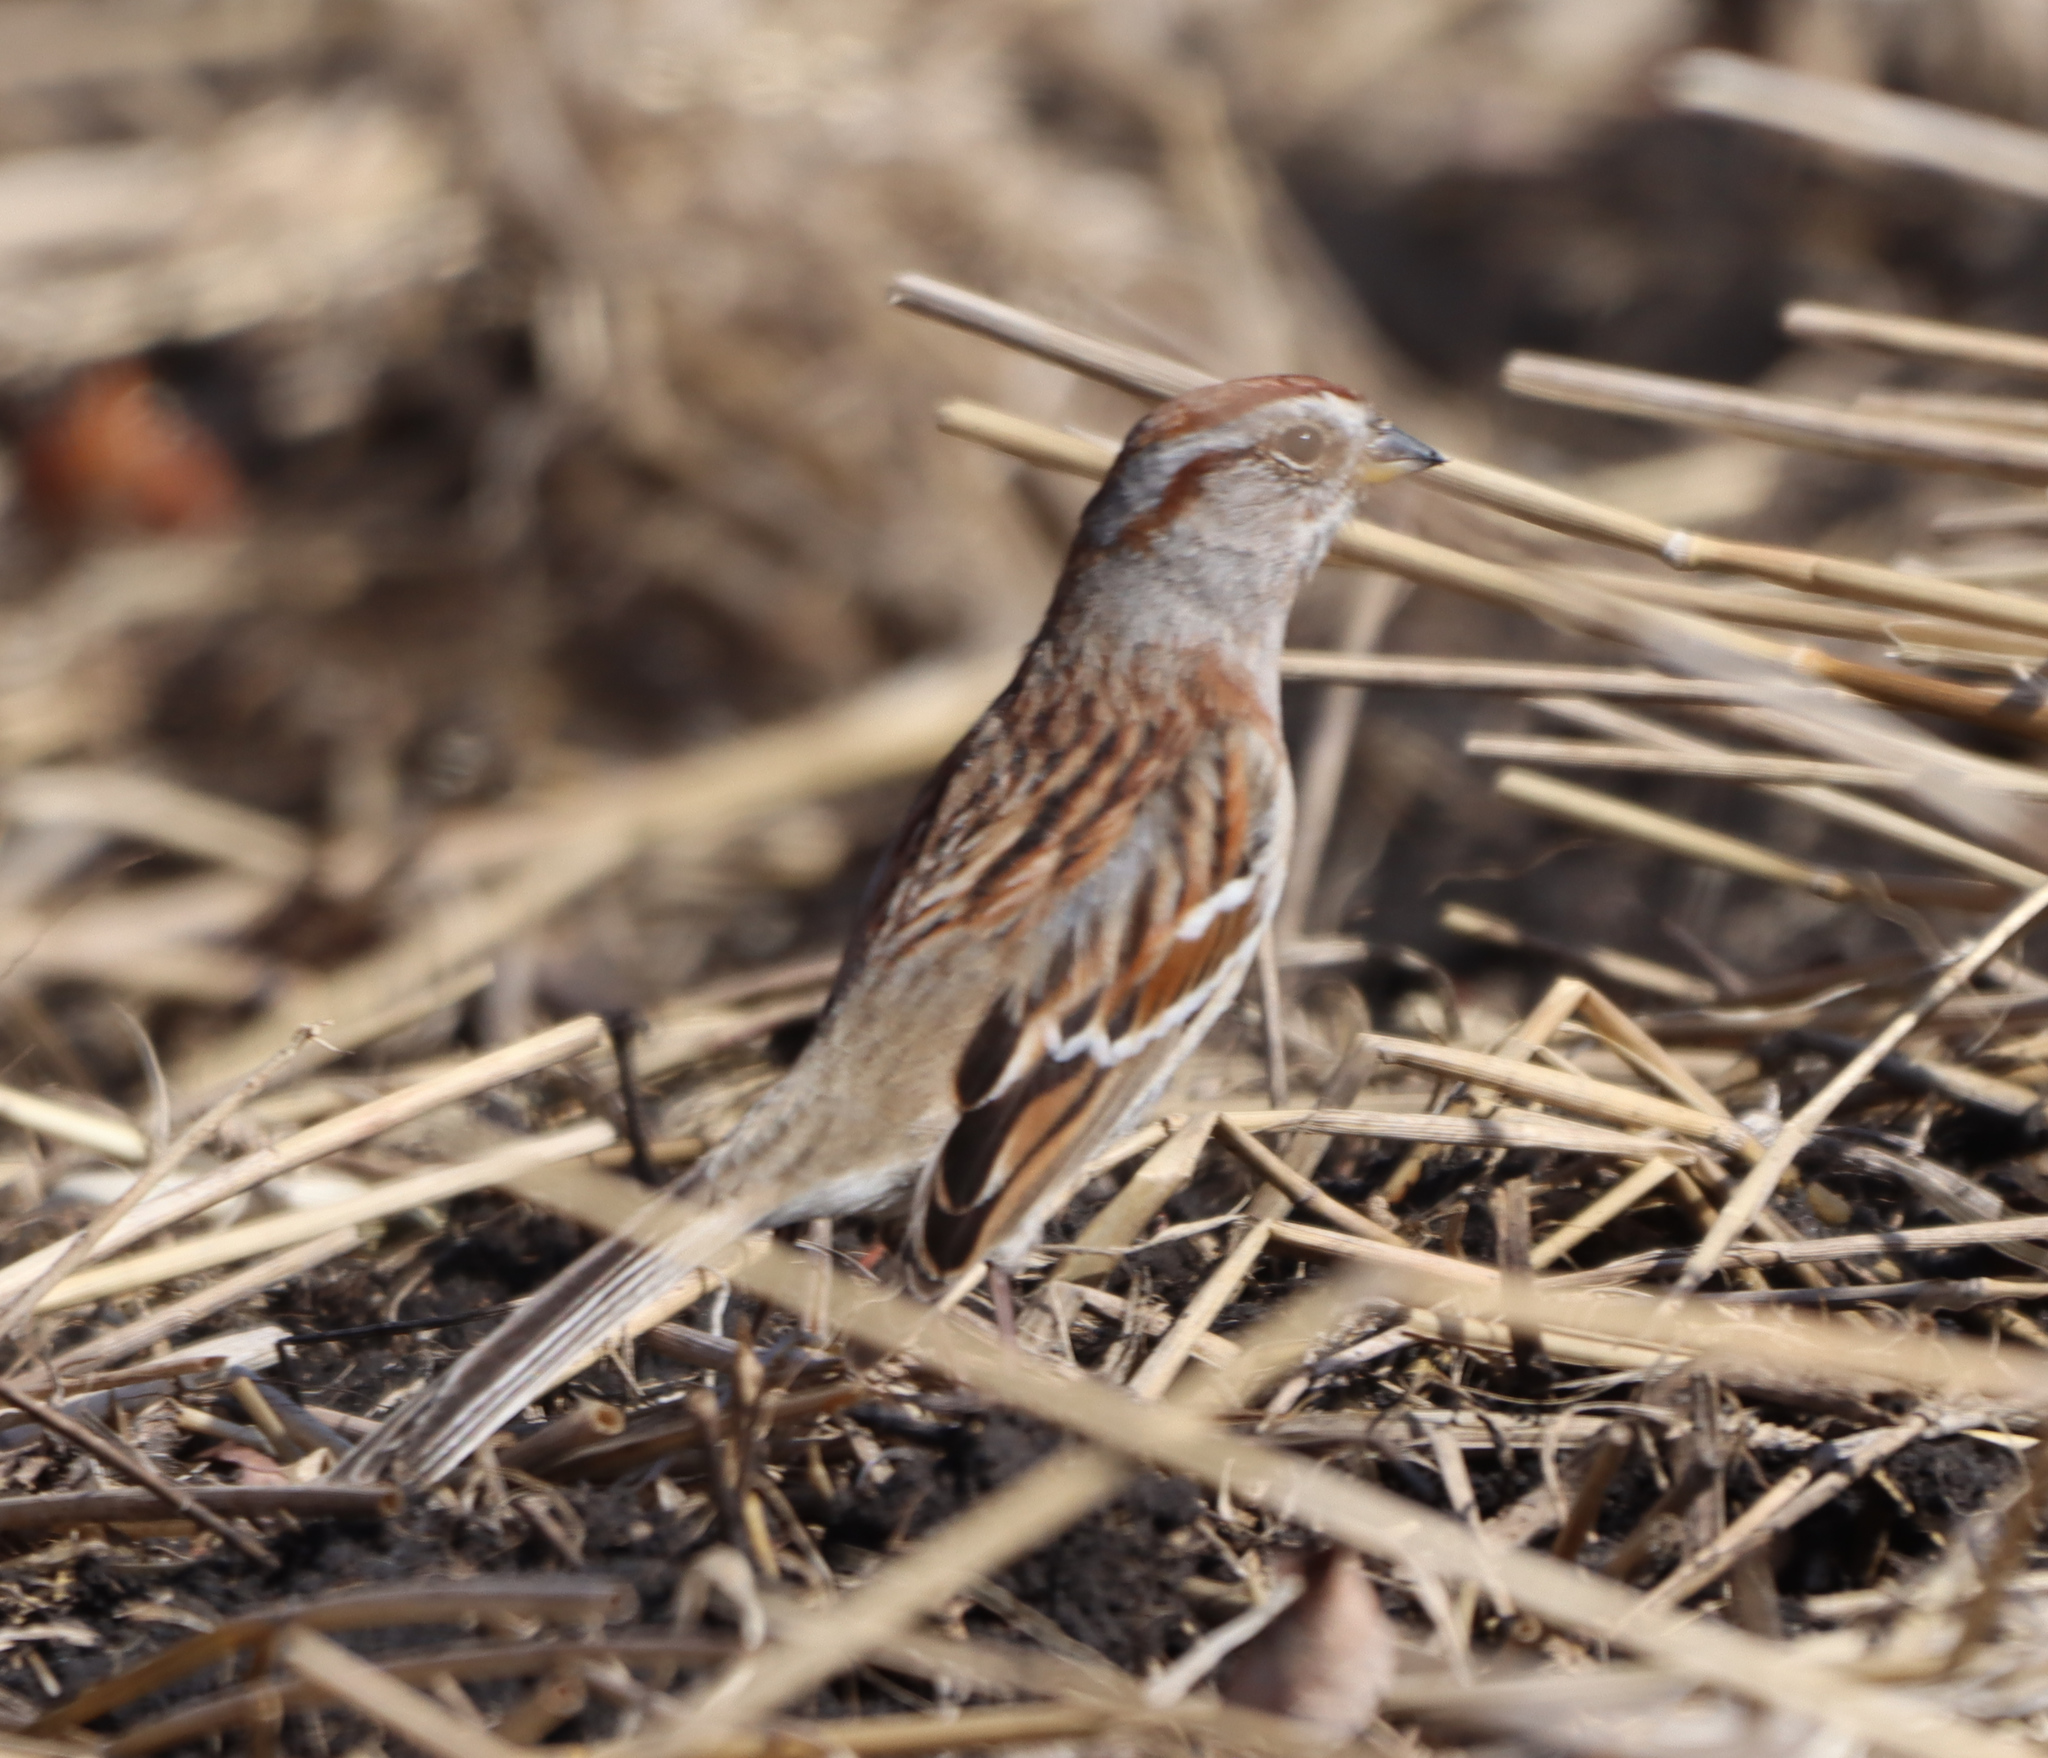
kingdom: Animalia
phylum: Chordata
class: Aves
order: Passeriformes
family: Passerellidae
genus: Spizelloides
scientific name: Spizelloides arborea
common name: American tree sparrow
